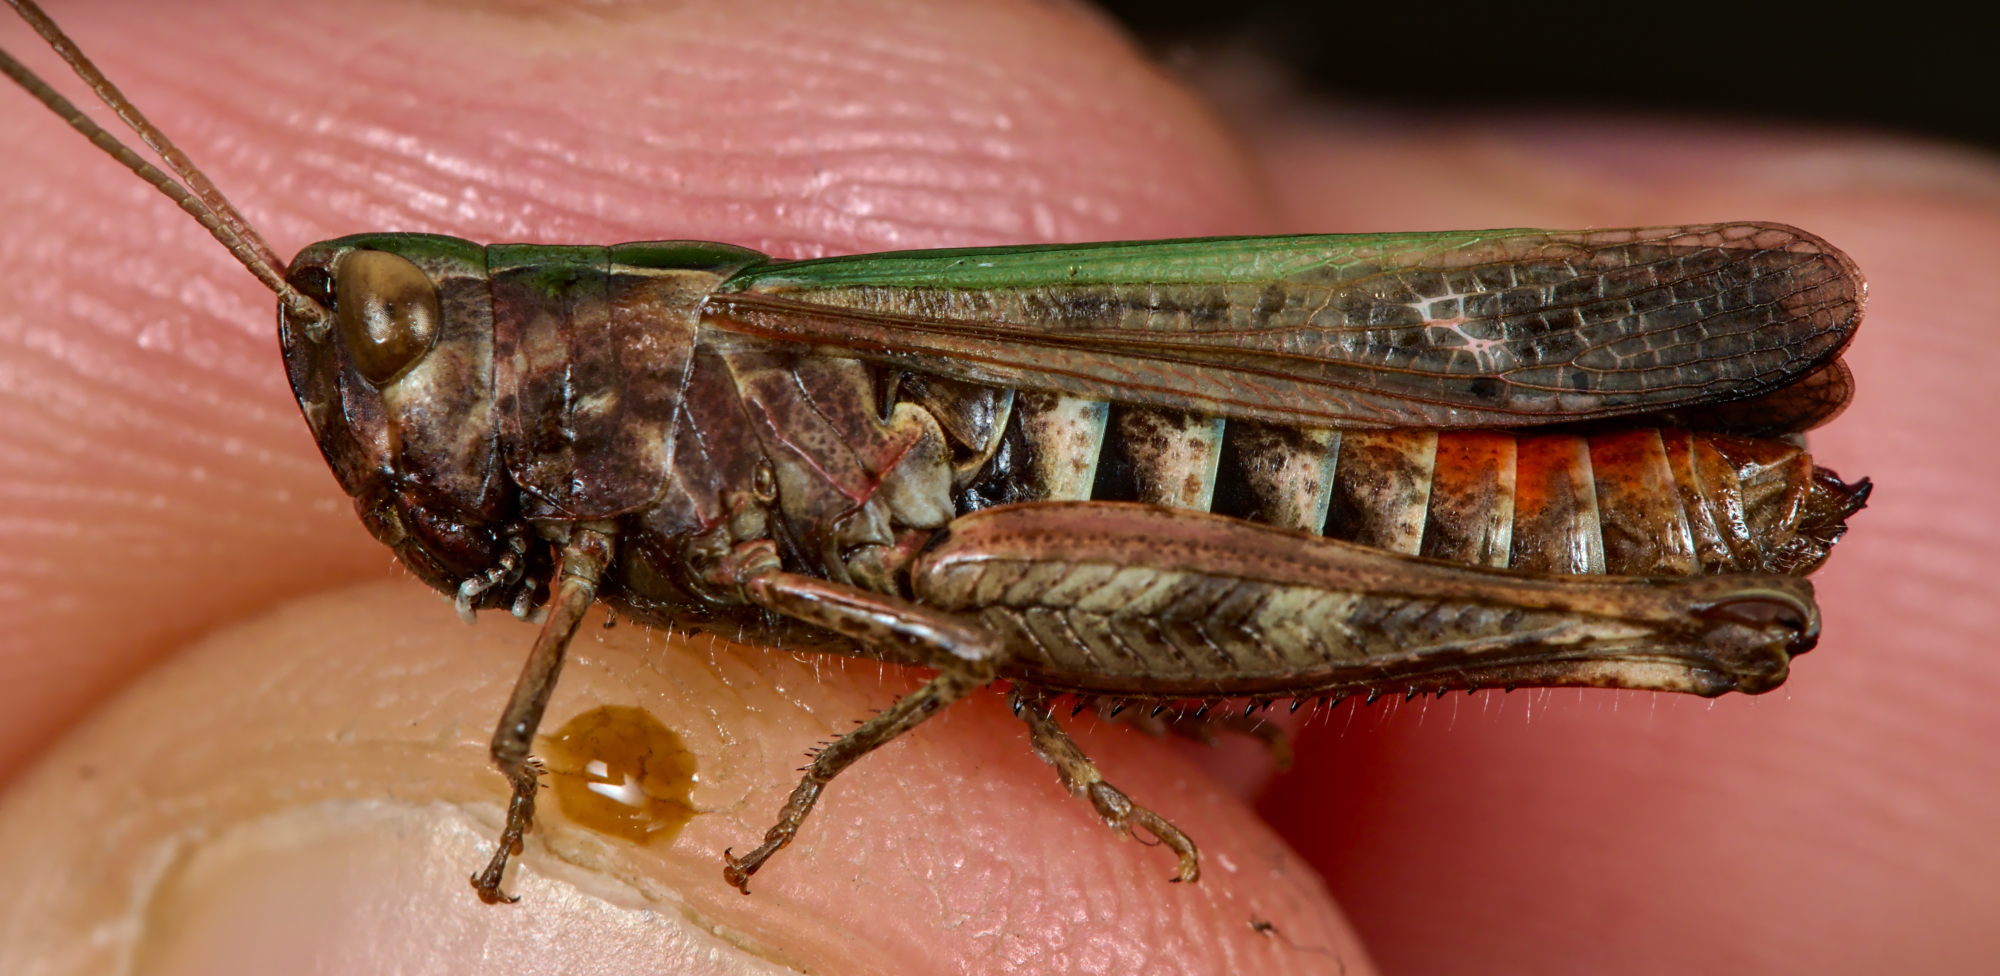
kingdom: Animalia
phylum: Arthropoda
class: Insecta
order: Orthoptera
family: Acrididae
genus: Omocestus
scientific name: Omocestus rufipes
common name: Woodland grasshopper
